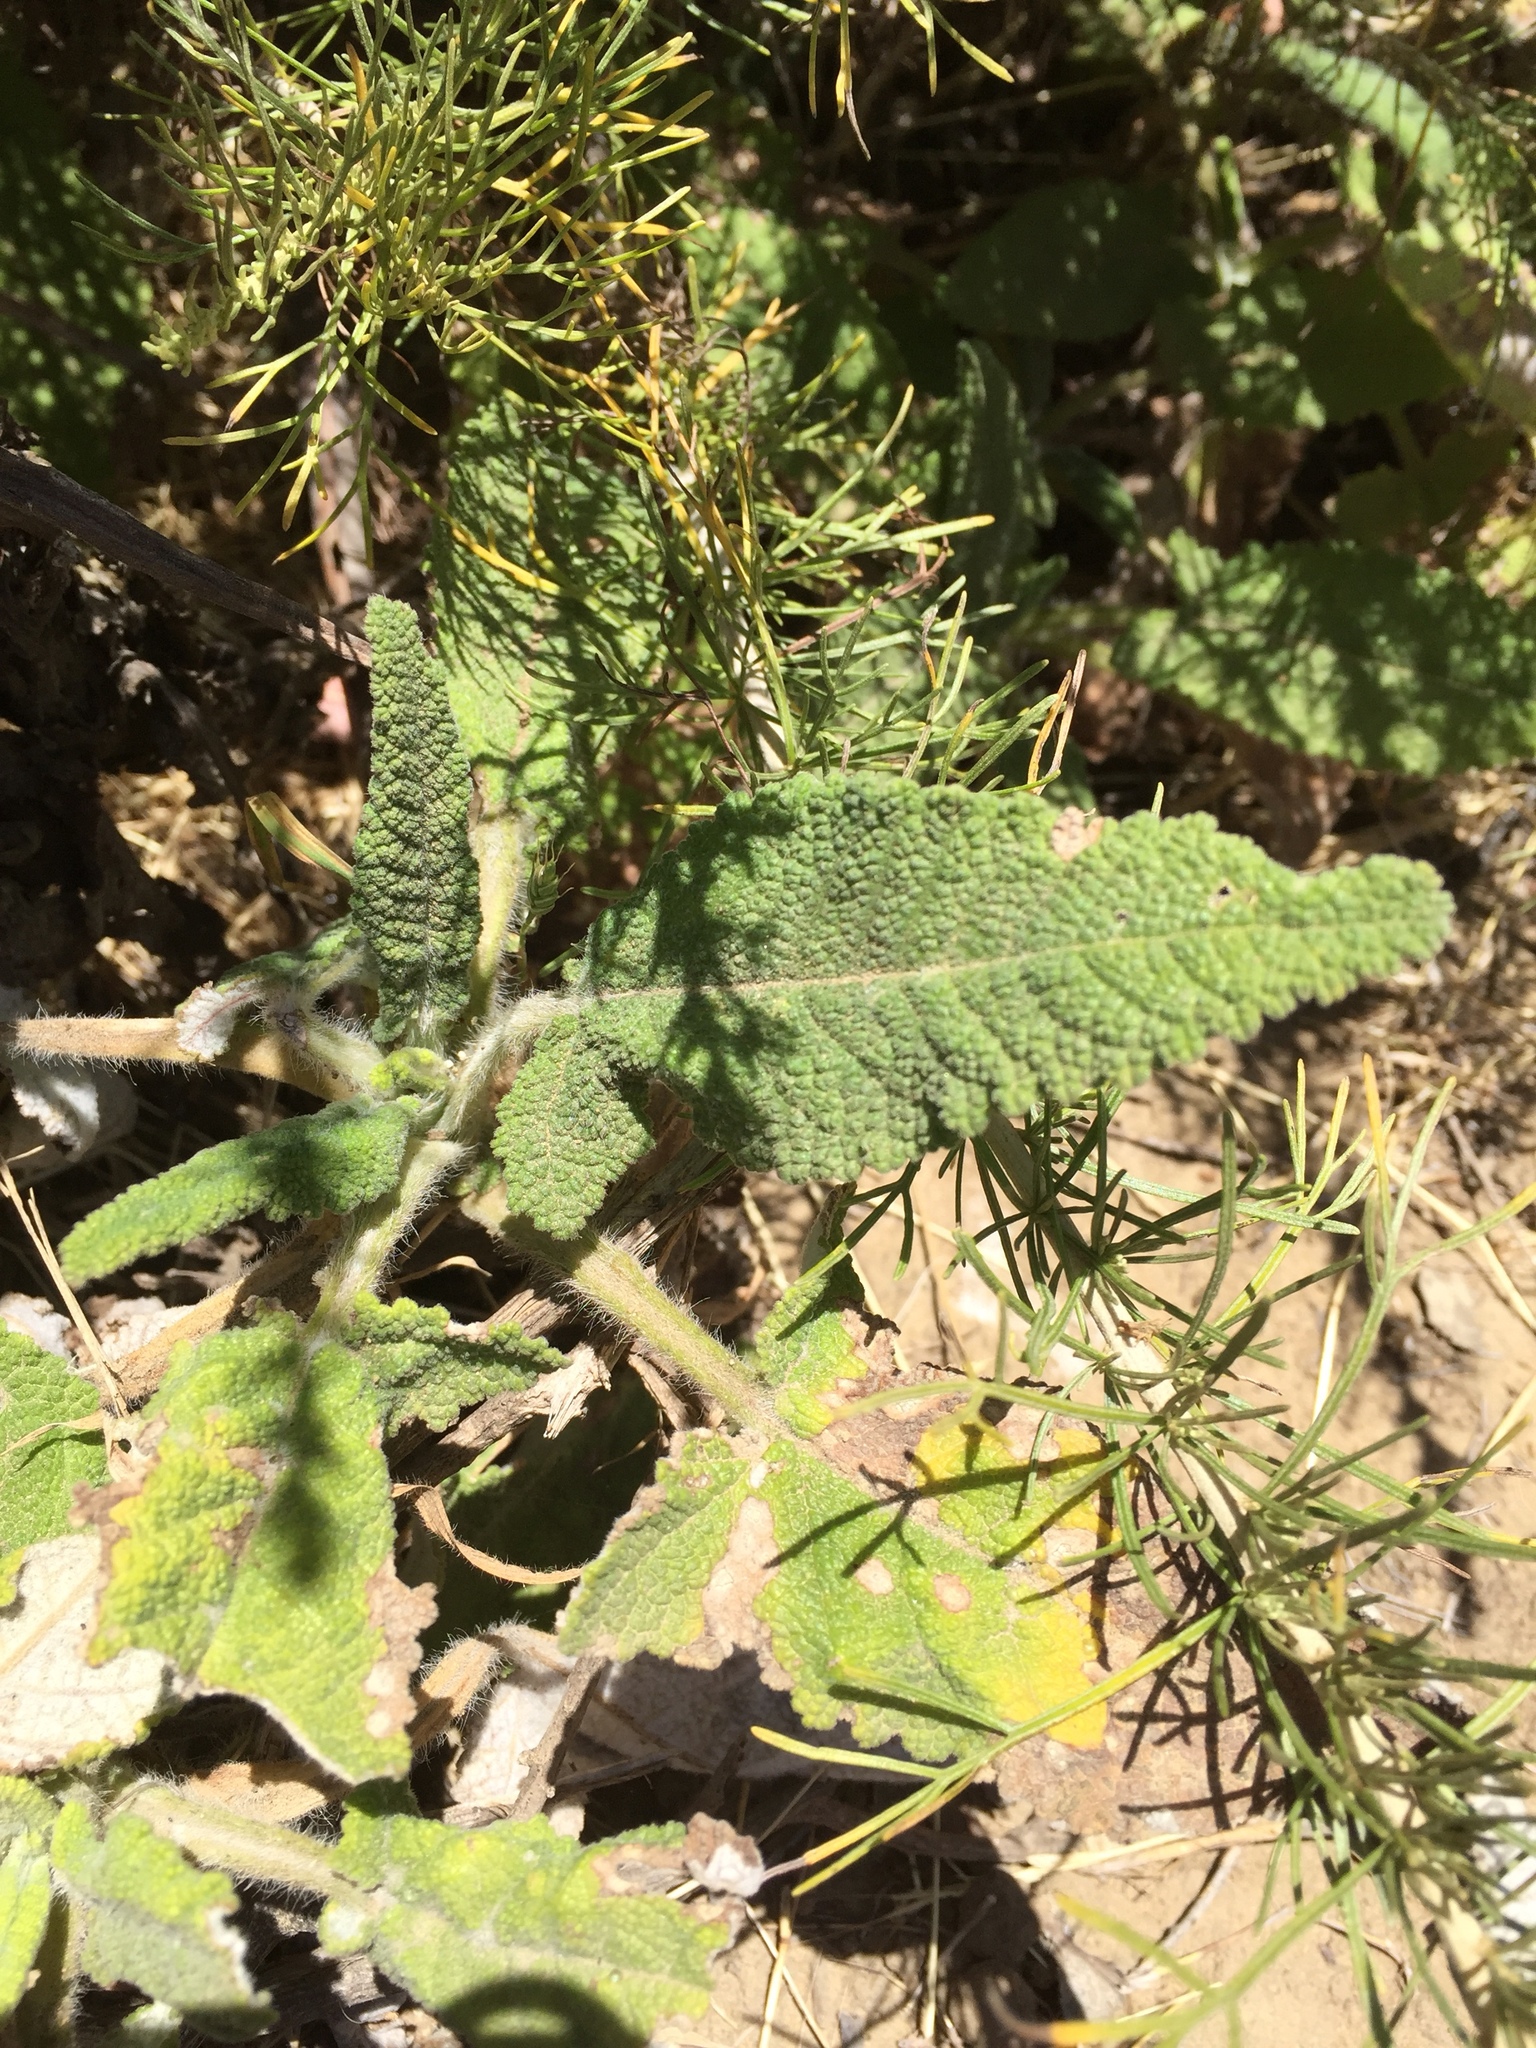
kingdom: Plantae
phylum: Tracheophyta
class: Magnoliopsida
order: Lamiales
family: Lamiaceae
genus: Salvia
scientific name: Salvia spathacea
